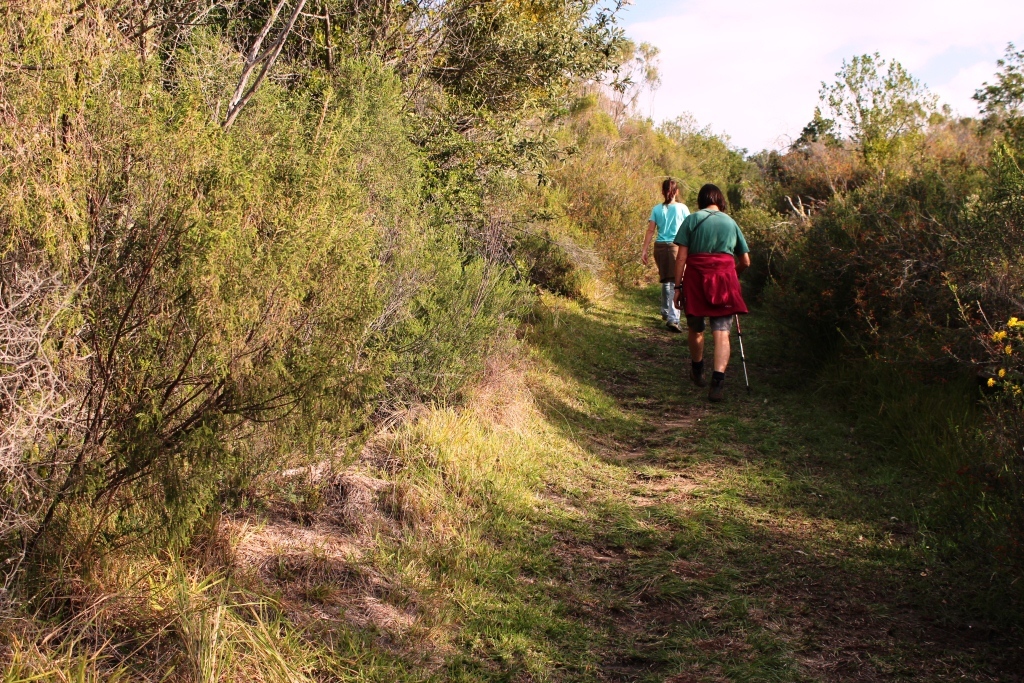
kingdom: Plantae
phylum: Tracheophyta
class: Liliopsida
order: Poales
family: Poaceae
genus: Stenotaphrum
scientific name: Stenotaphrum secundatum
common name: St. augustine grass
